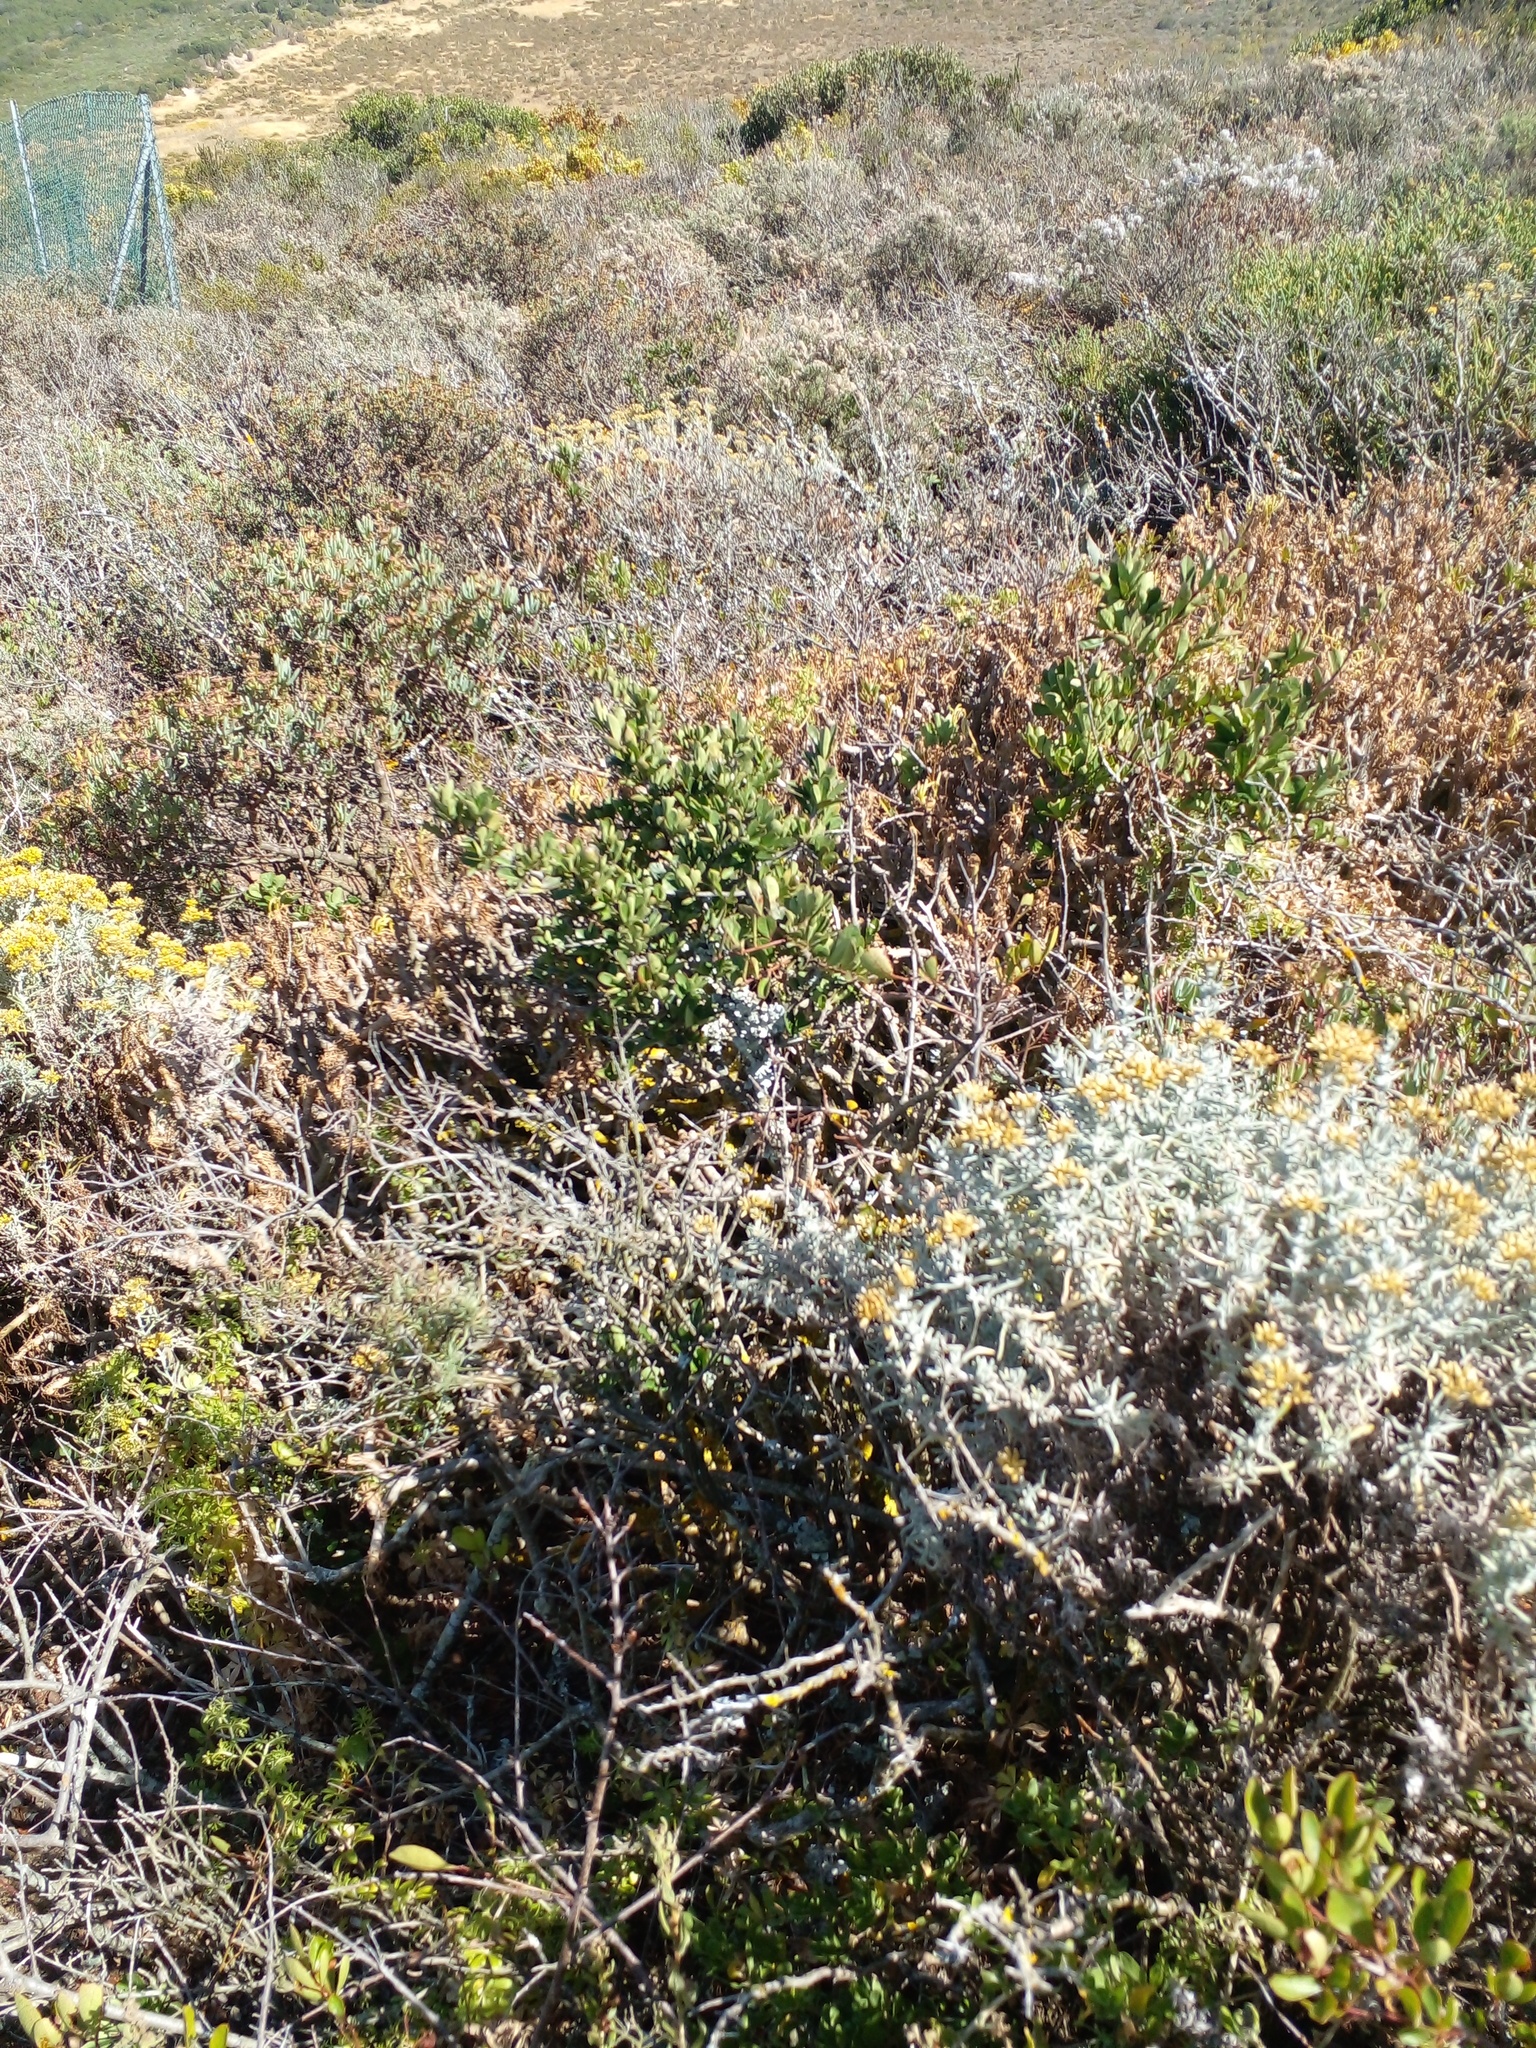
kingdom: Plantae
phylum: Tracheophyta
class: Magnoliopsida
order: Asterales
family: Asteraceae
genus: Helichrysum
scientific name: Helichrysum revolutum
